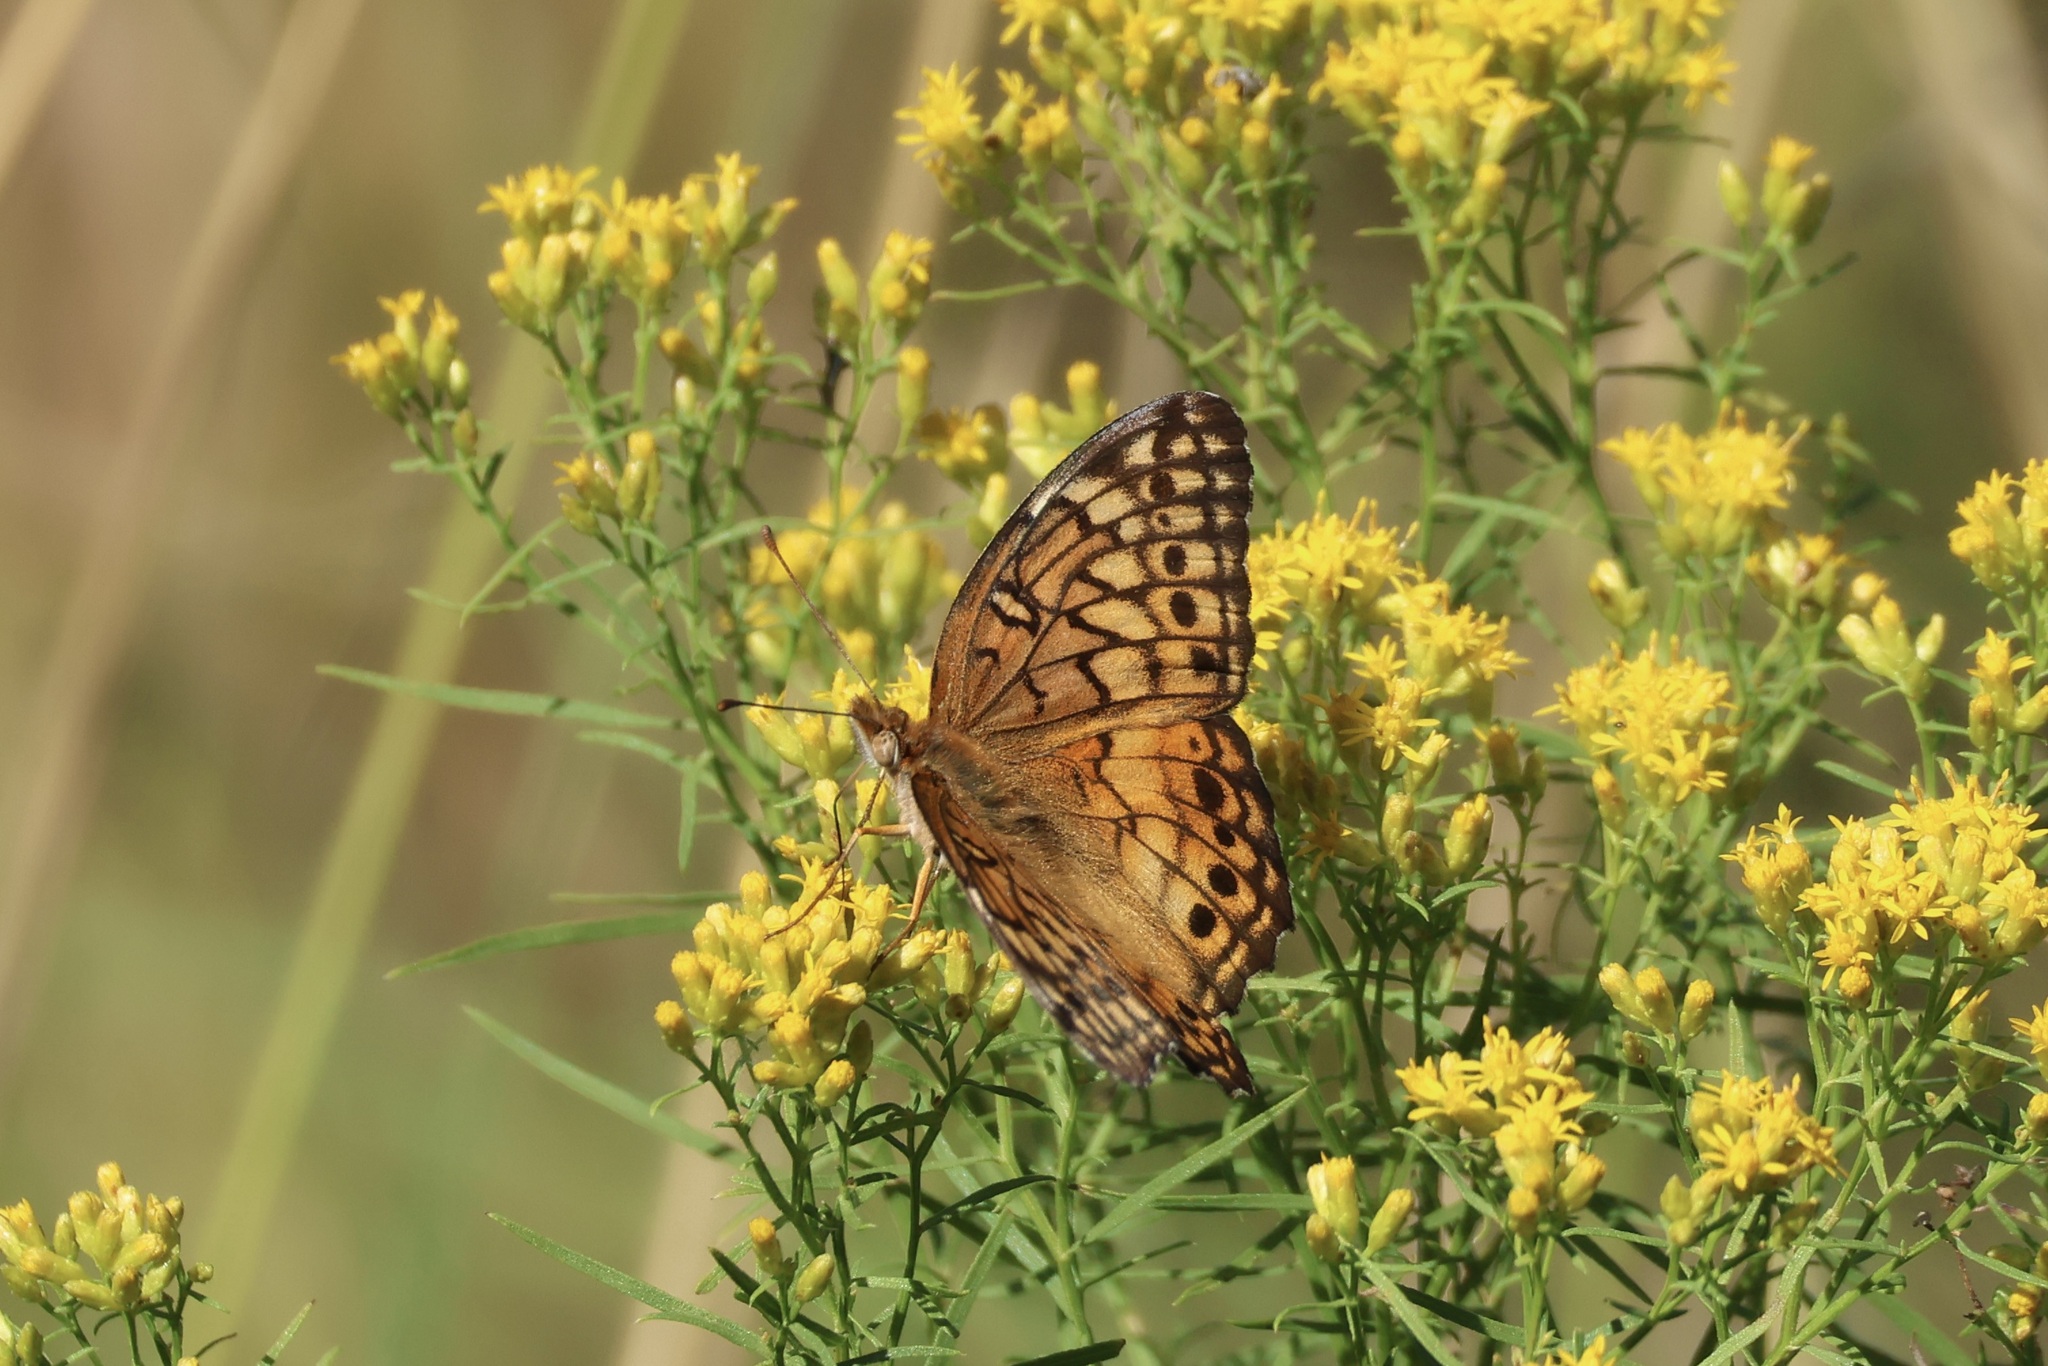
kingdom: Animalia
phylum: Arthropoda
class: Insecta
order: Lepidoptera
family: Nymphalidae
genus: Euptoieta
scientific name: Euptoieta claudia
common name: Variegated fritillary
